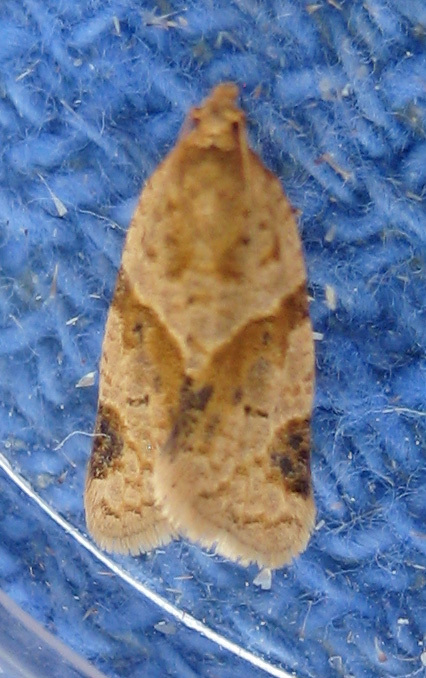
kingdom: Animalia
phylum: Arthropoda
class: Insecta
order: Lepidoptera
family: Tortricidae
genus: Clepsis
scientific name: Clepsis peritana
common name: Garden tortrix
